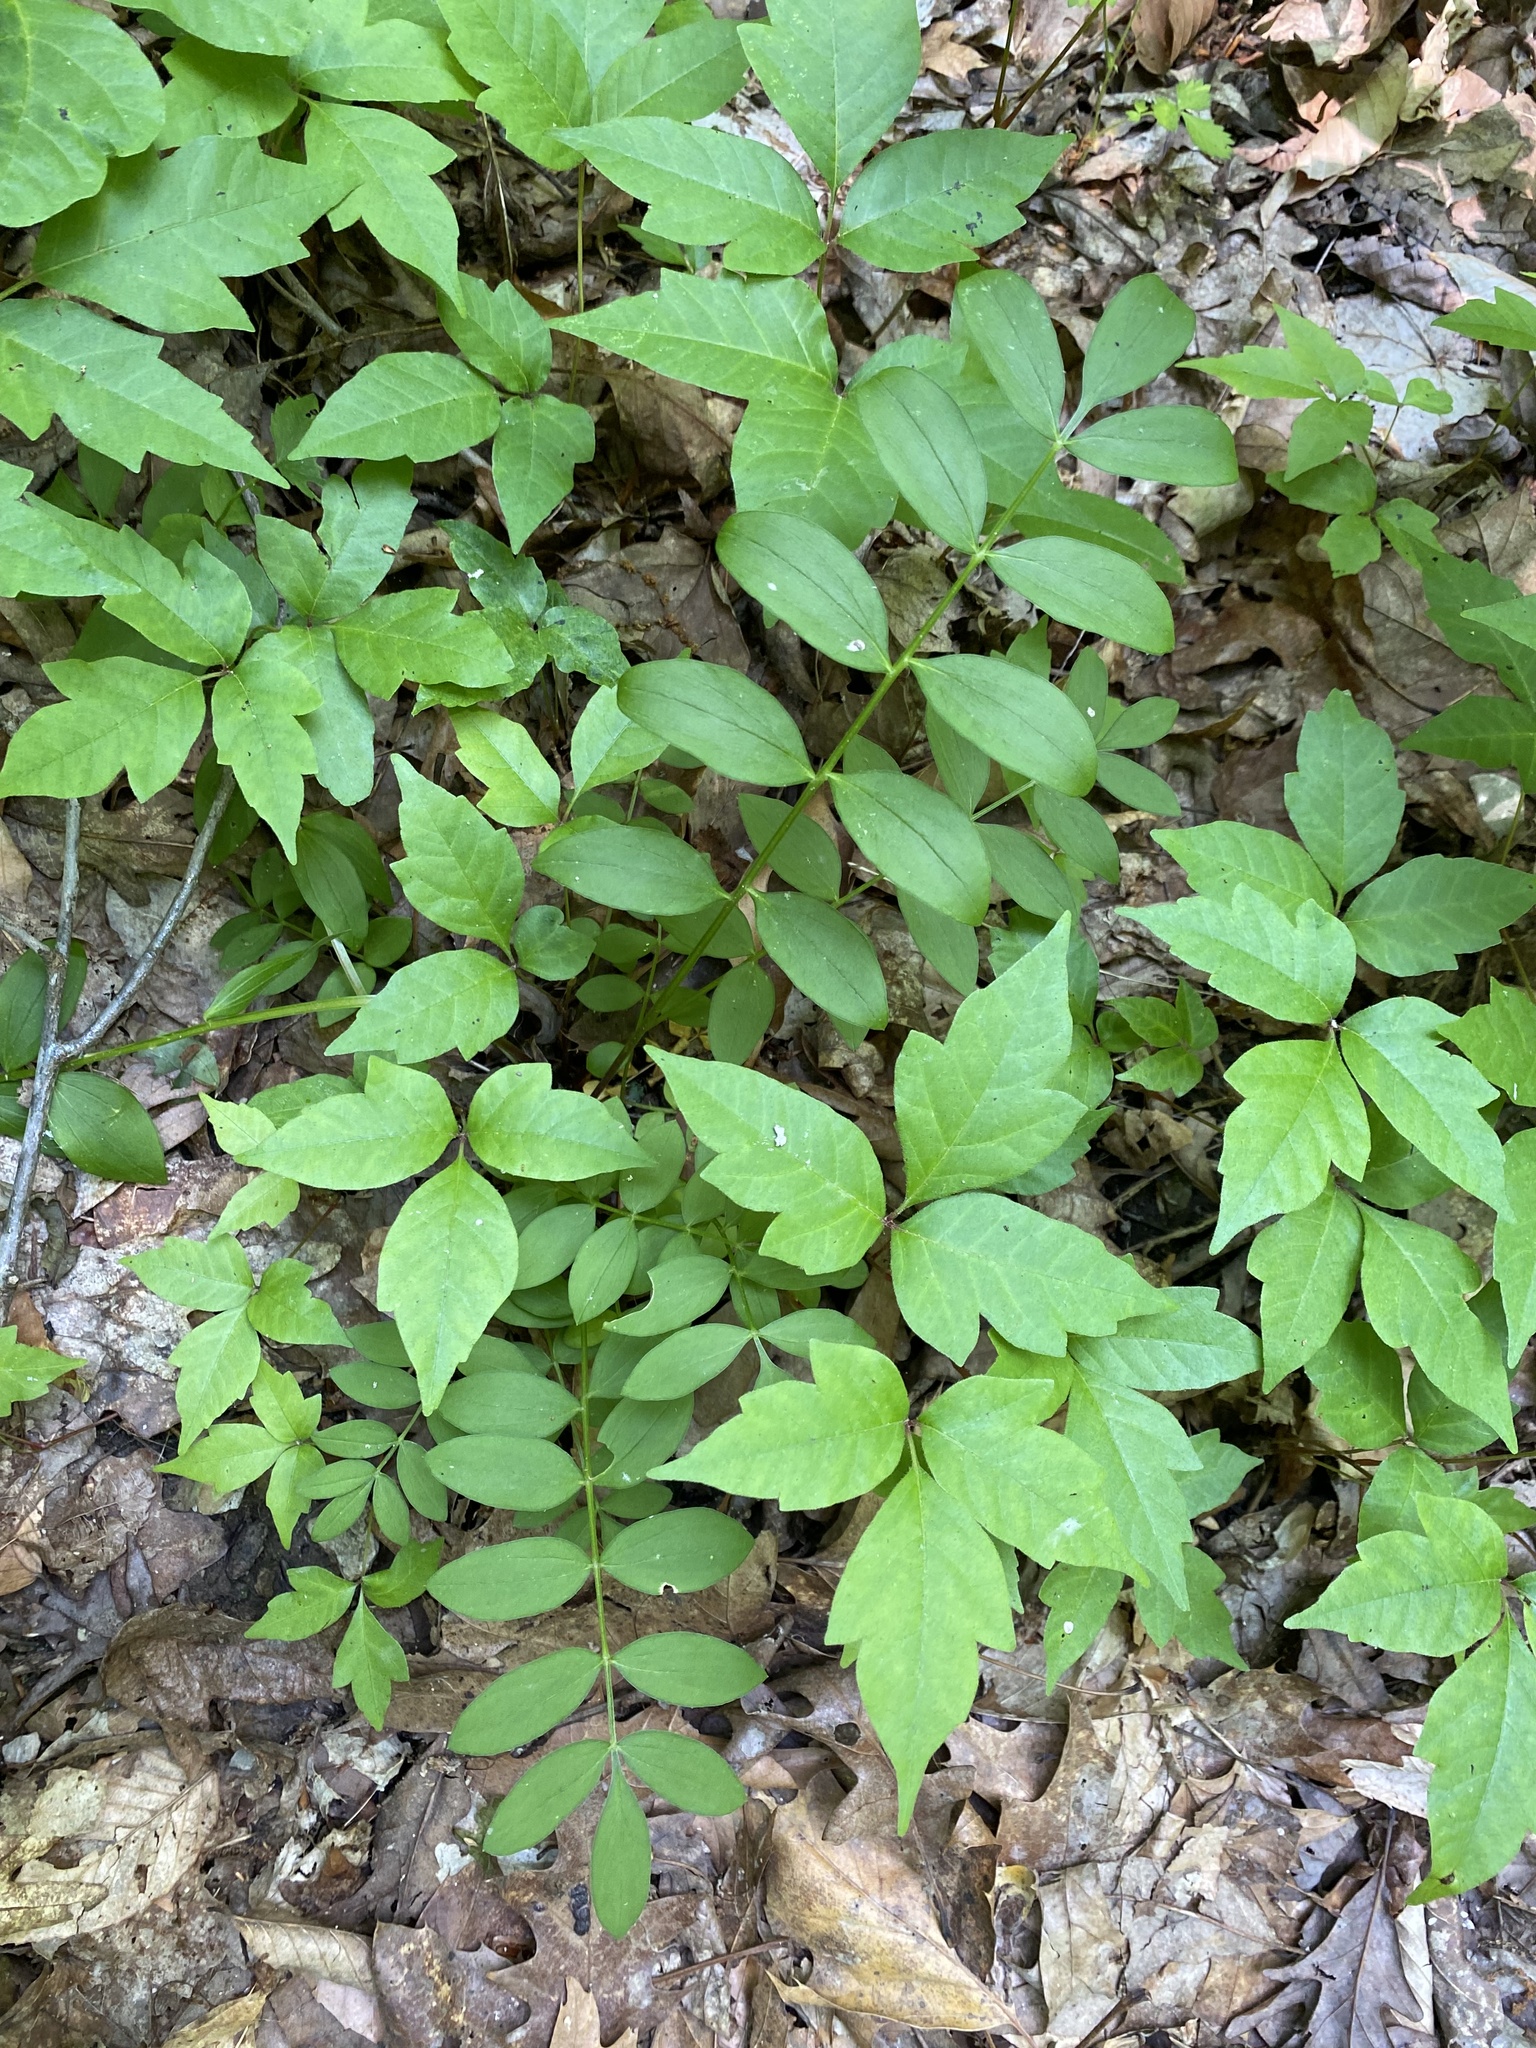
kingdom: Plantae
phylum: Tracheophyta
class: Magnoliopsida
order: Ericales
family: Polemoniaceae
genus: Polemonium
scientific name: Polemonium reptans
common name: Creeping jacob's-ladder
